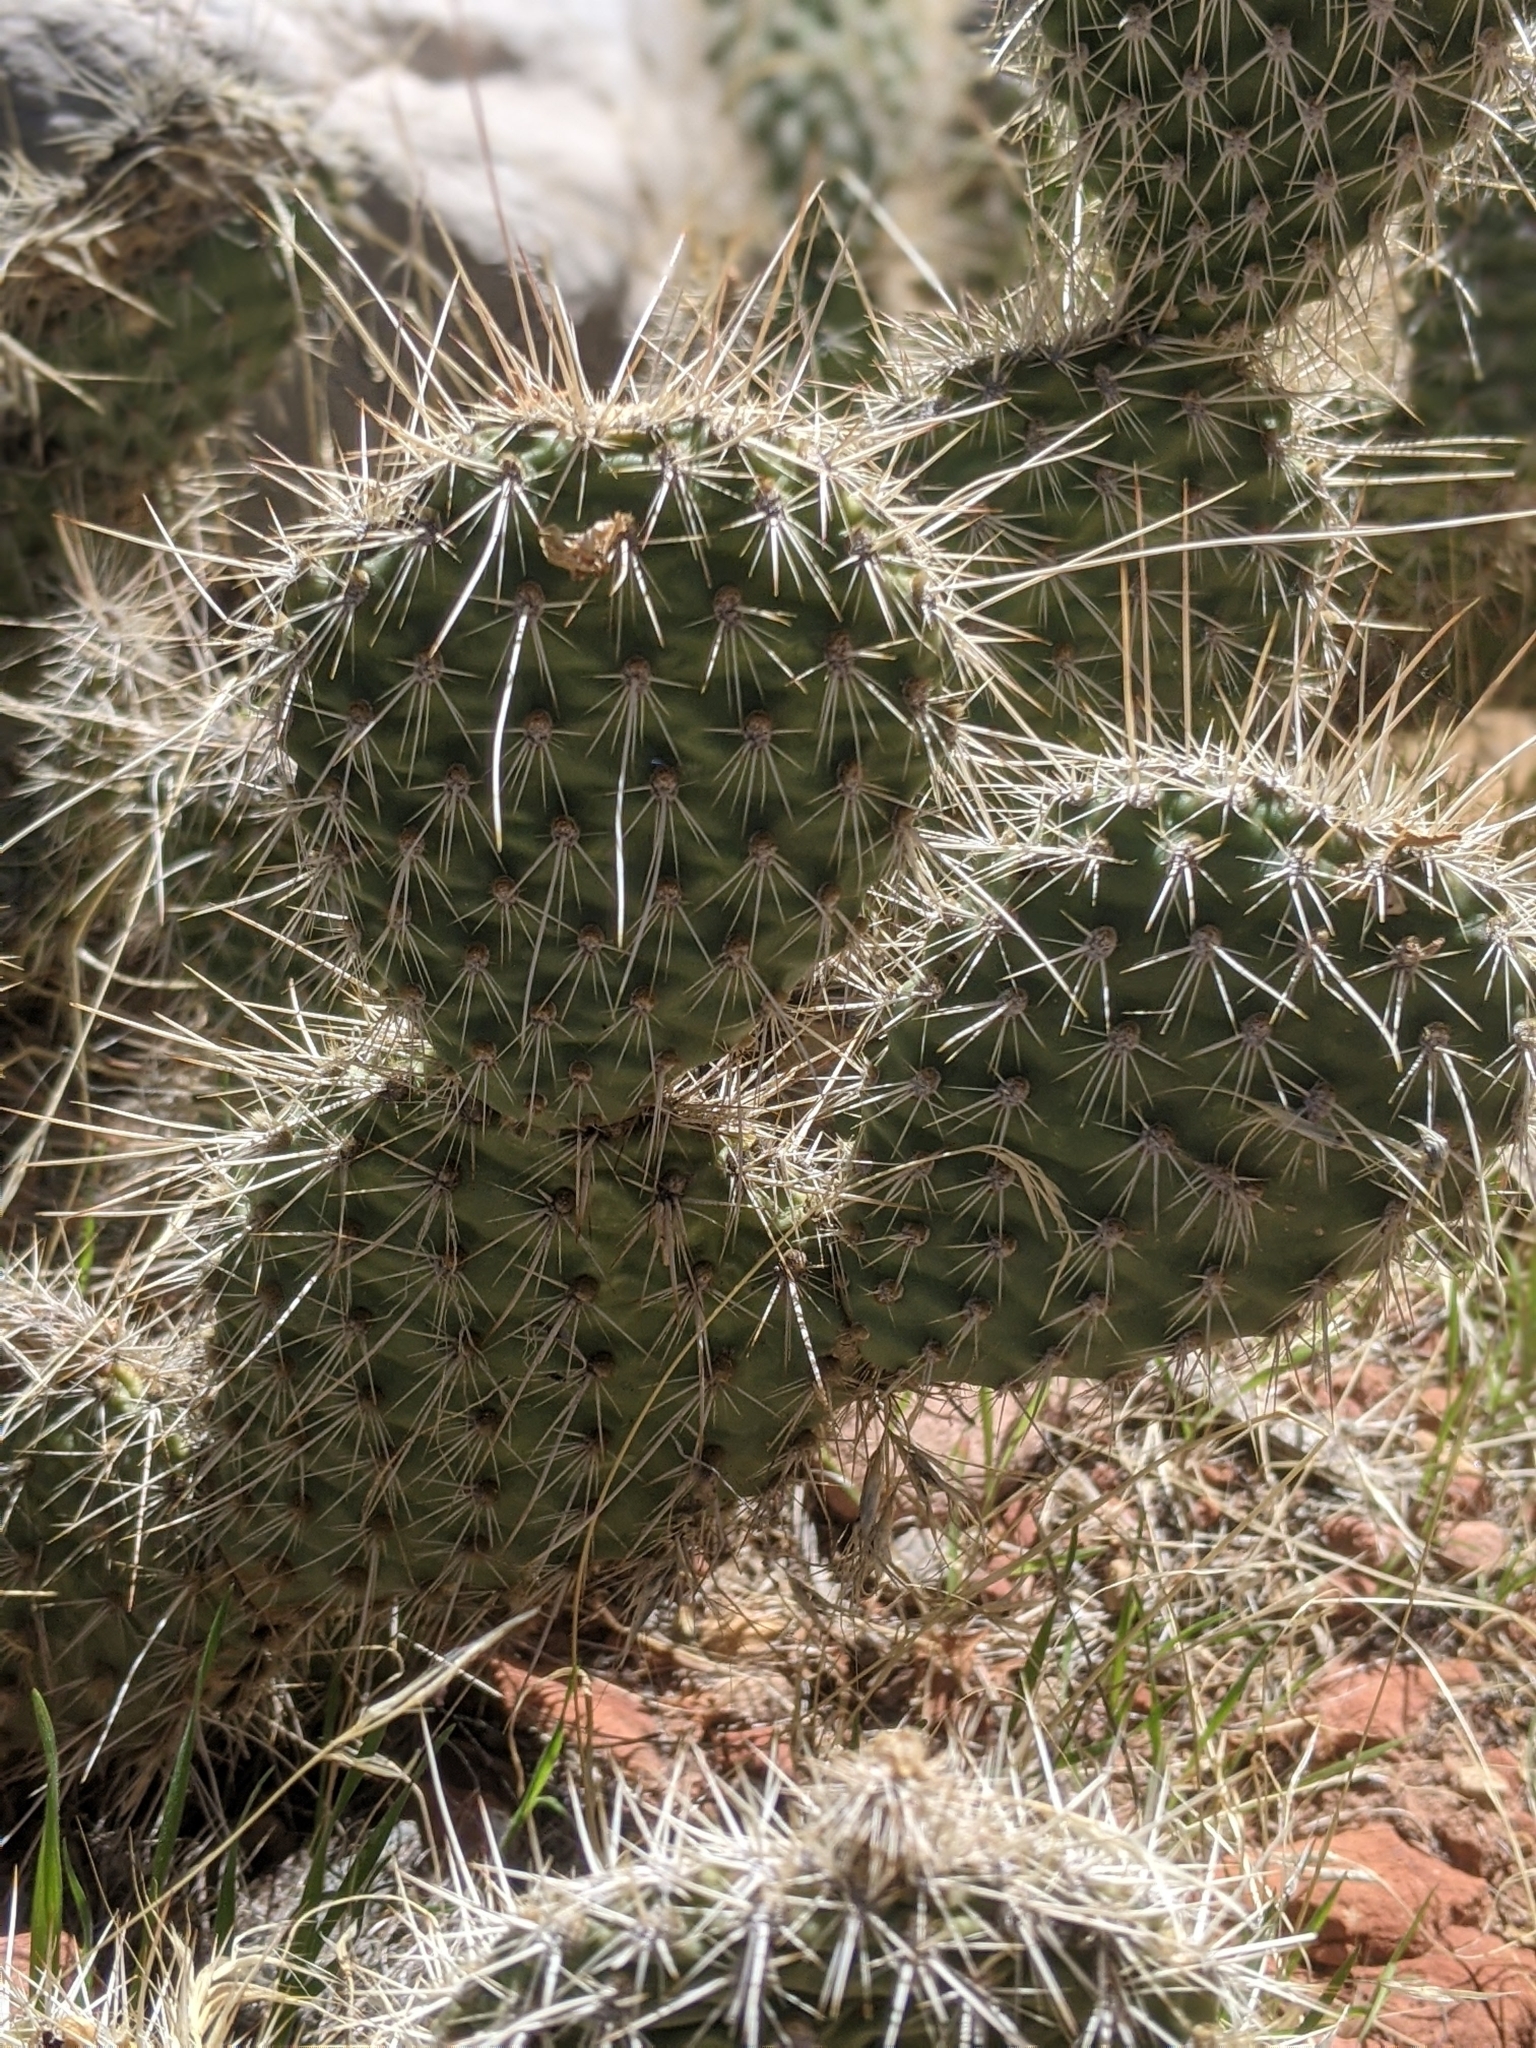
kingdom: Plantae
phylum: Tracheophyta
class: Magnoliopsida
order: Caryophyllales
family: Cactaceae
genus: Opuntia
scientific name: Opuntia polyacantha
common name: Plains prickly-pear
